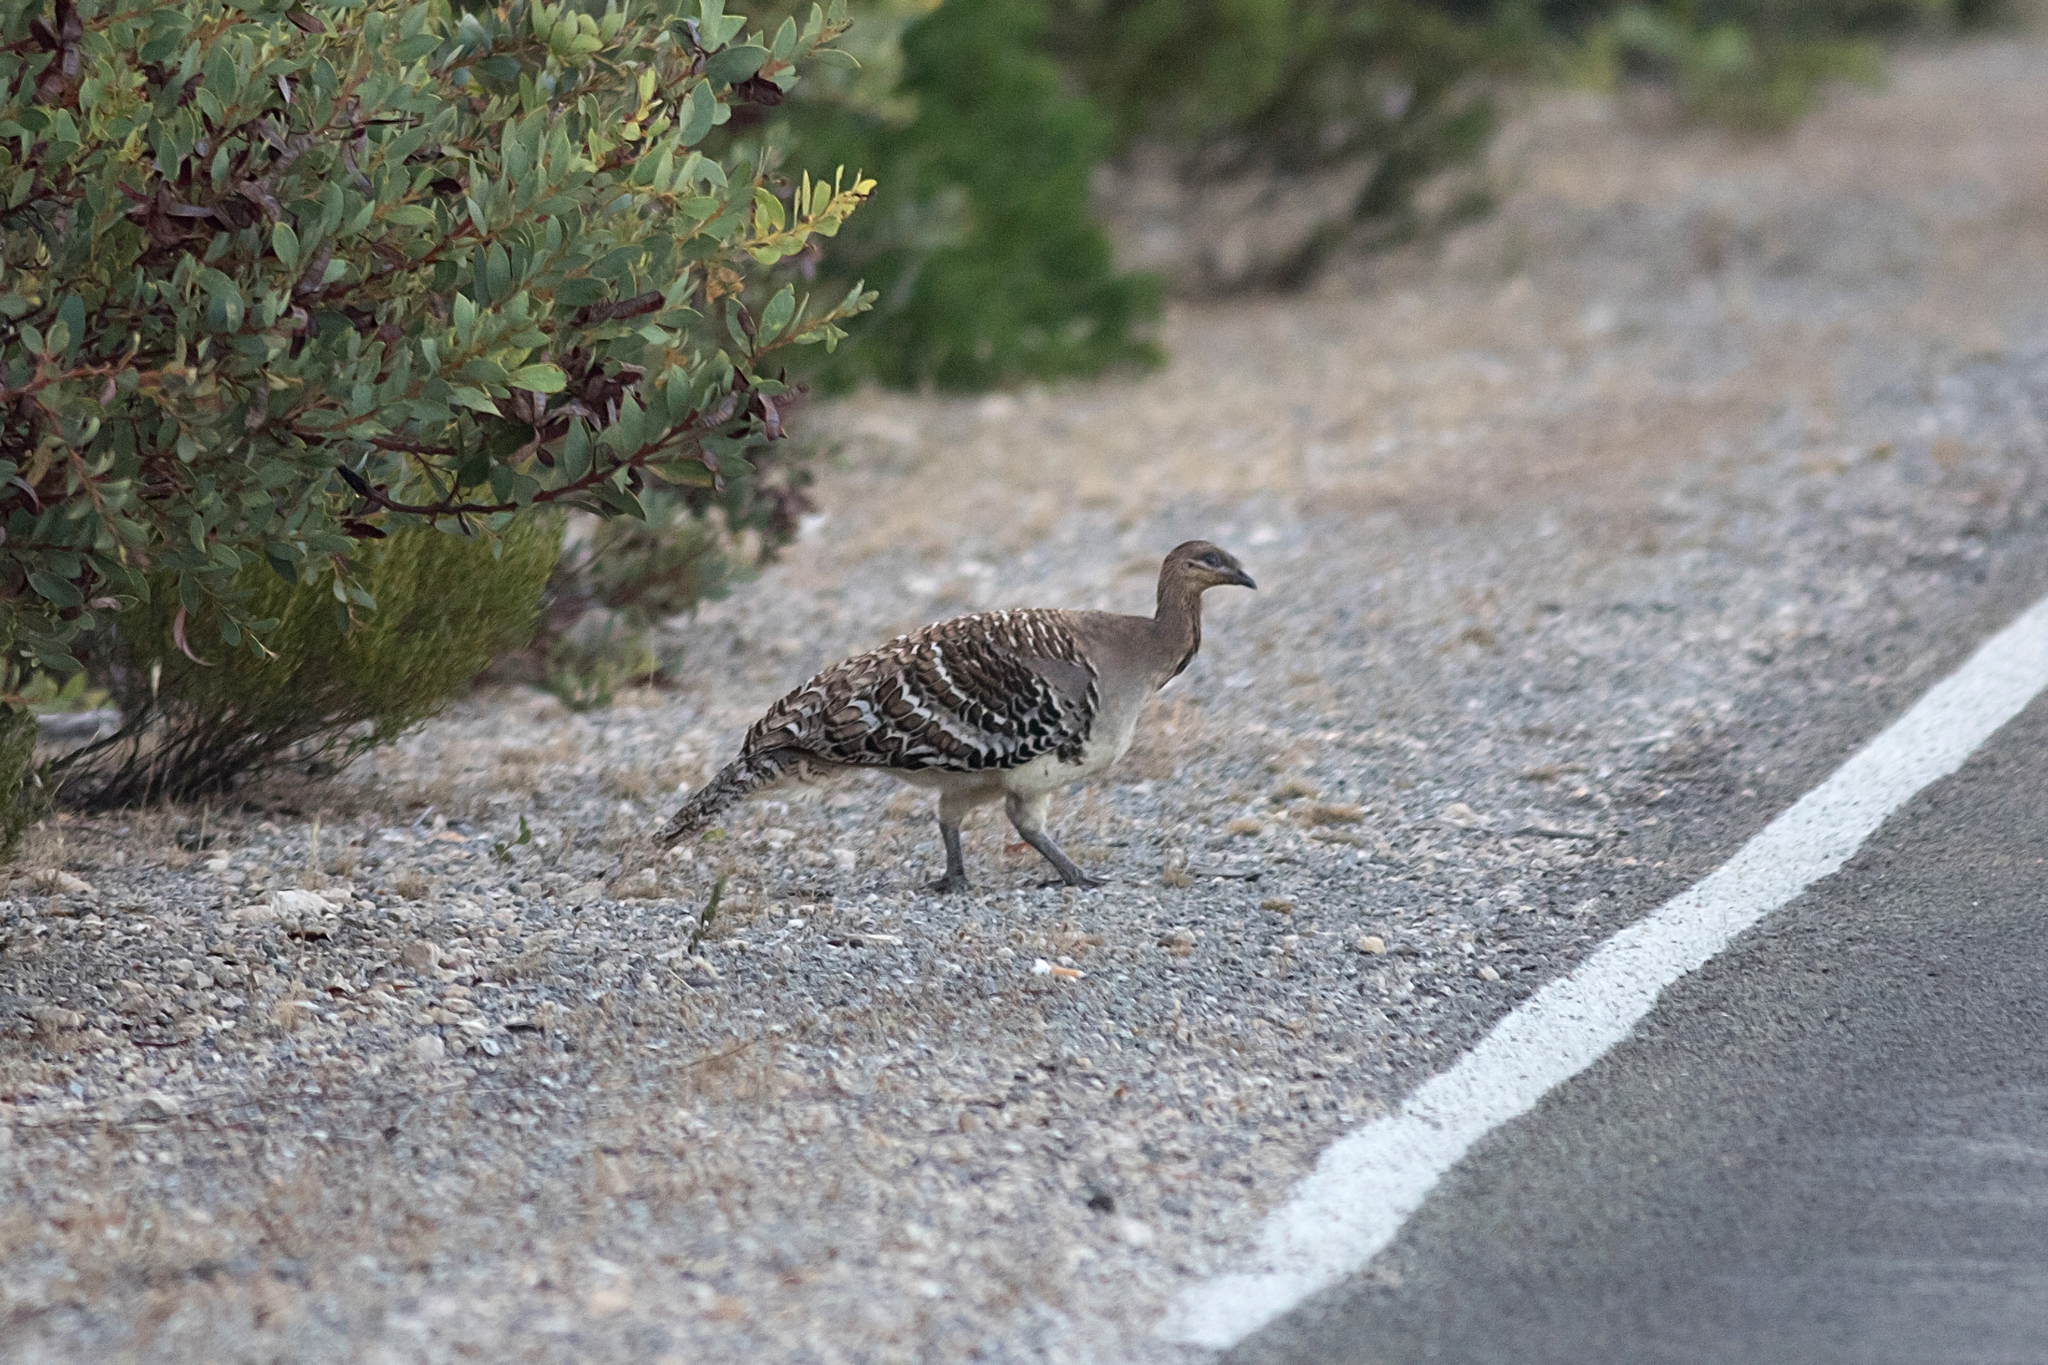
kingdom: Animalia
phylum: Chordata
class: Aves
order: Galliformes
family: Megapodiidae
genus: Leipoa
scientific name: Leipoa ocellata
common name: Malleefowl
